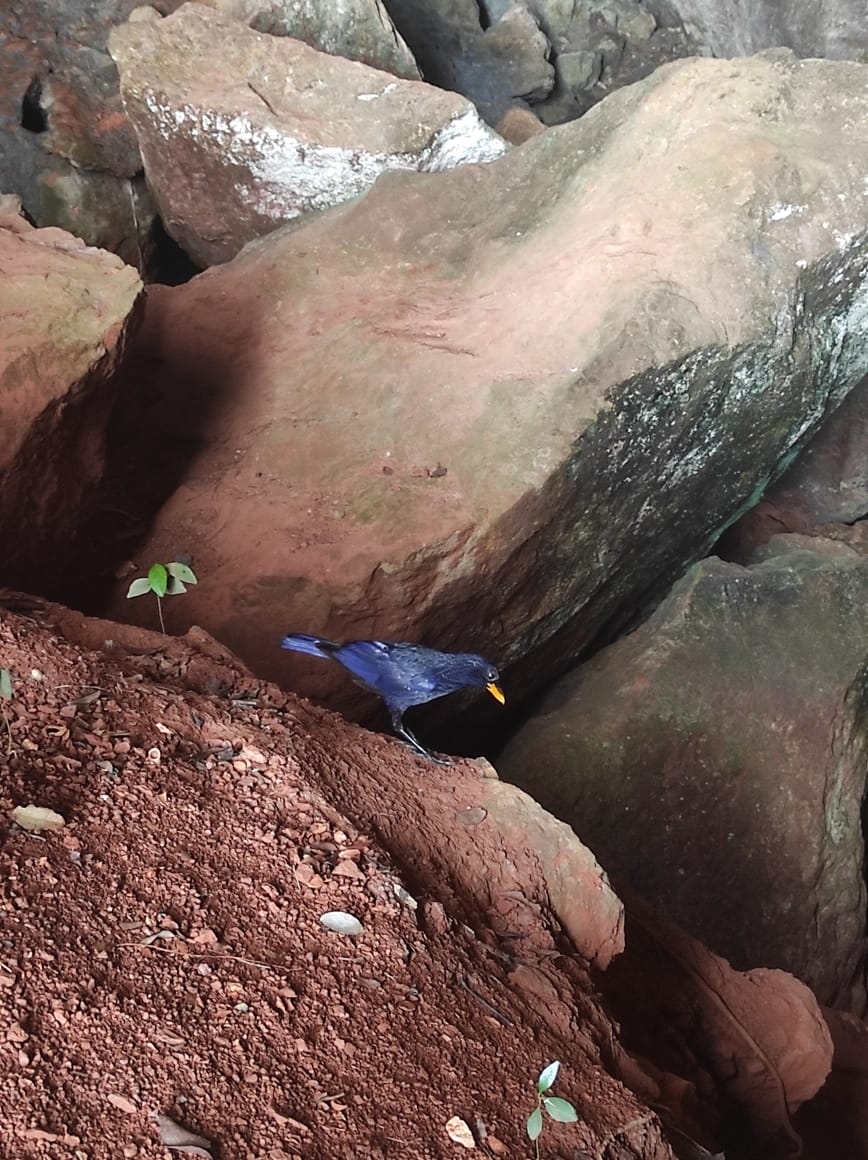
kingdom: Animalia
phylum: Chordata
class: Aves
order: Passeriformes
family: Muscicapidae
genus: Myophonus
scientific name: Myophonus caeruleus
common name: Blue whistling-thrush
